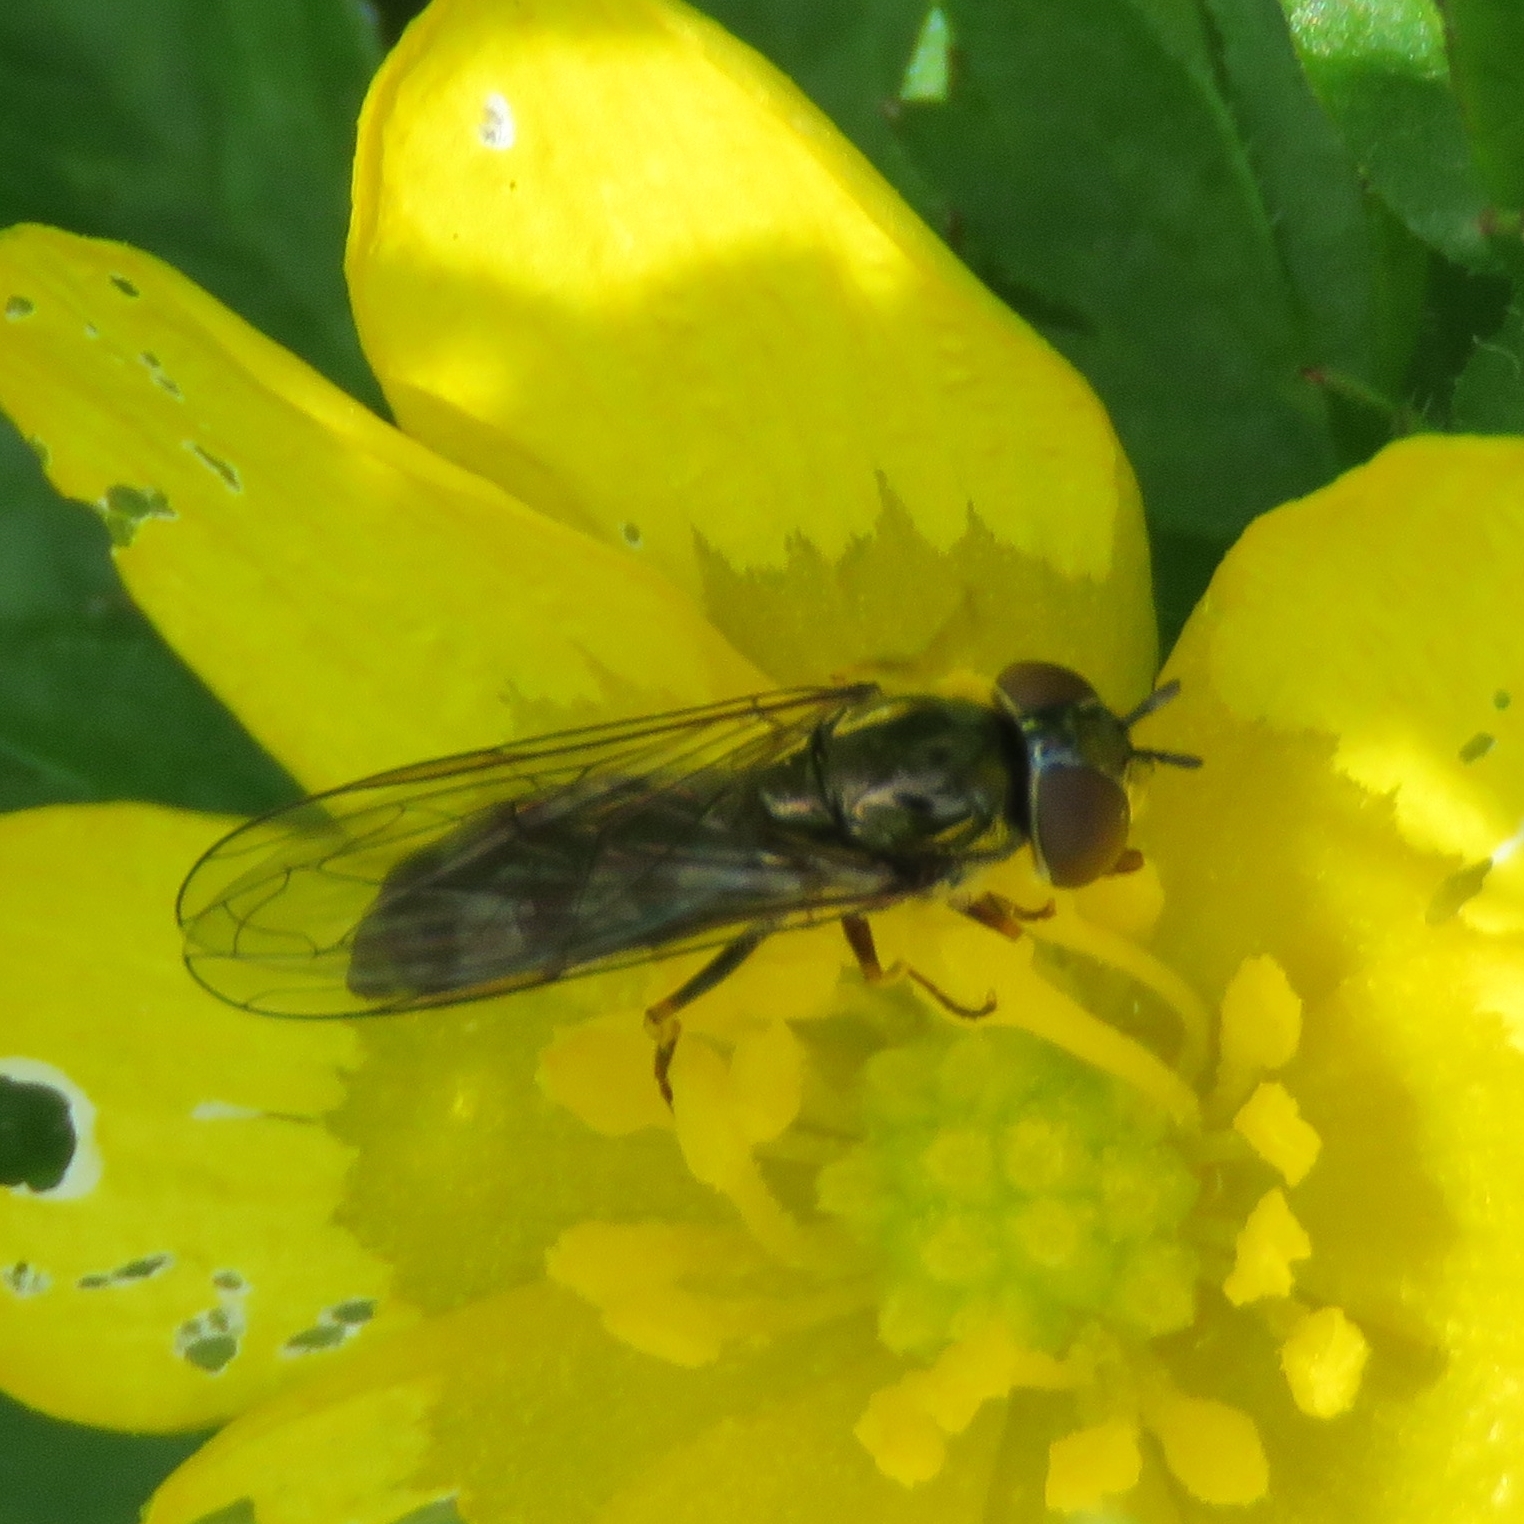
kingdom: Animalia
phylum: Arthropoda
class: Insecta
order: Diptera
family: Syrphidae
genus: Platycheirus
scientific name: Platycheirus albimanus
